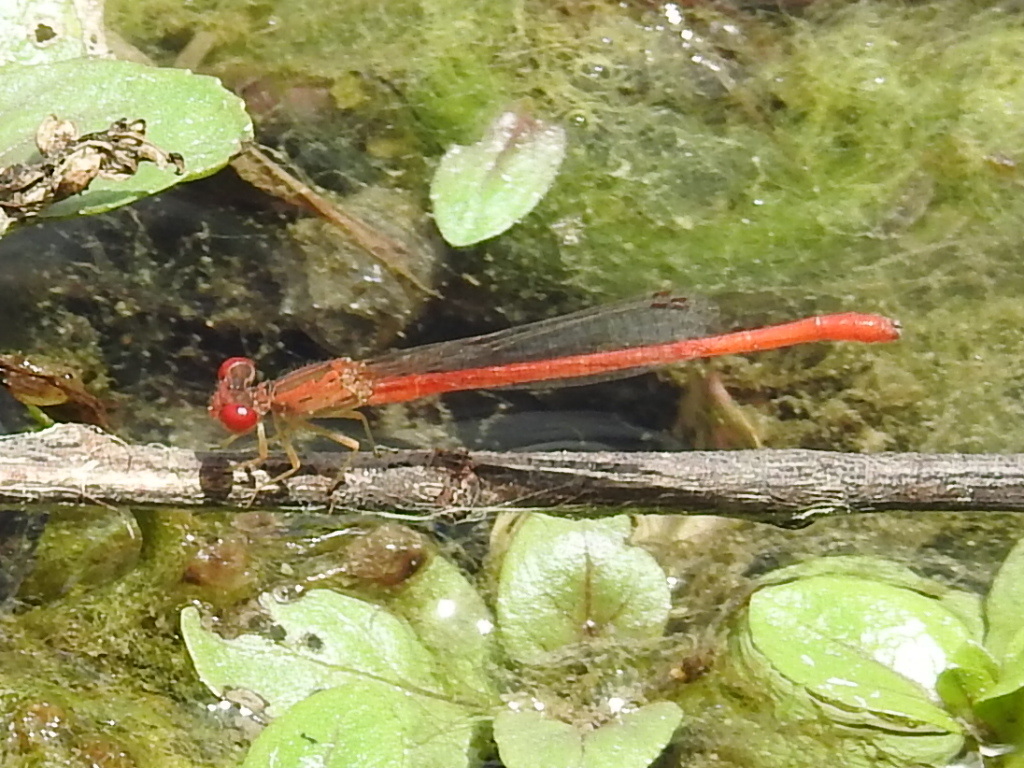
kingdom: Animalia
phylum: Arthropoda
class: Insecta
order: Odonata
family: Coenagrionidae
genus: Telebasis
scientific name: Telebasis salva
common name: Desert firetail
